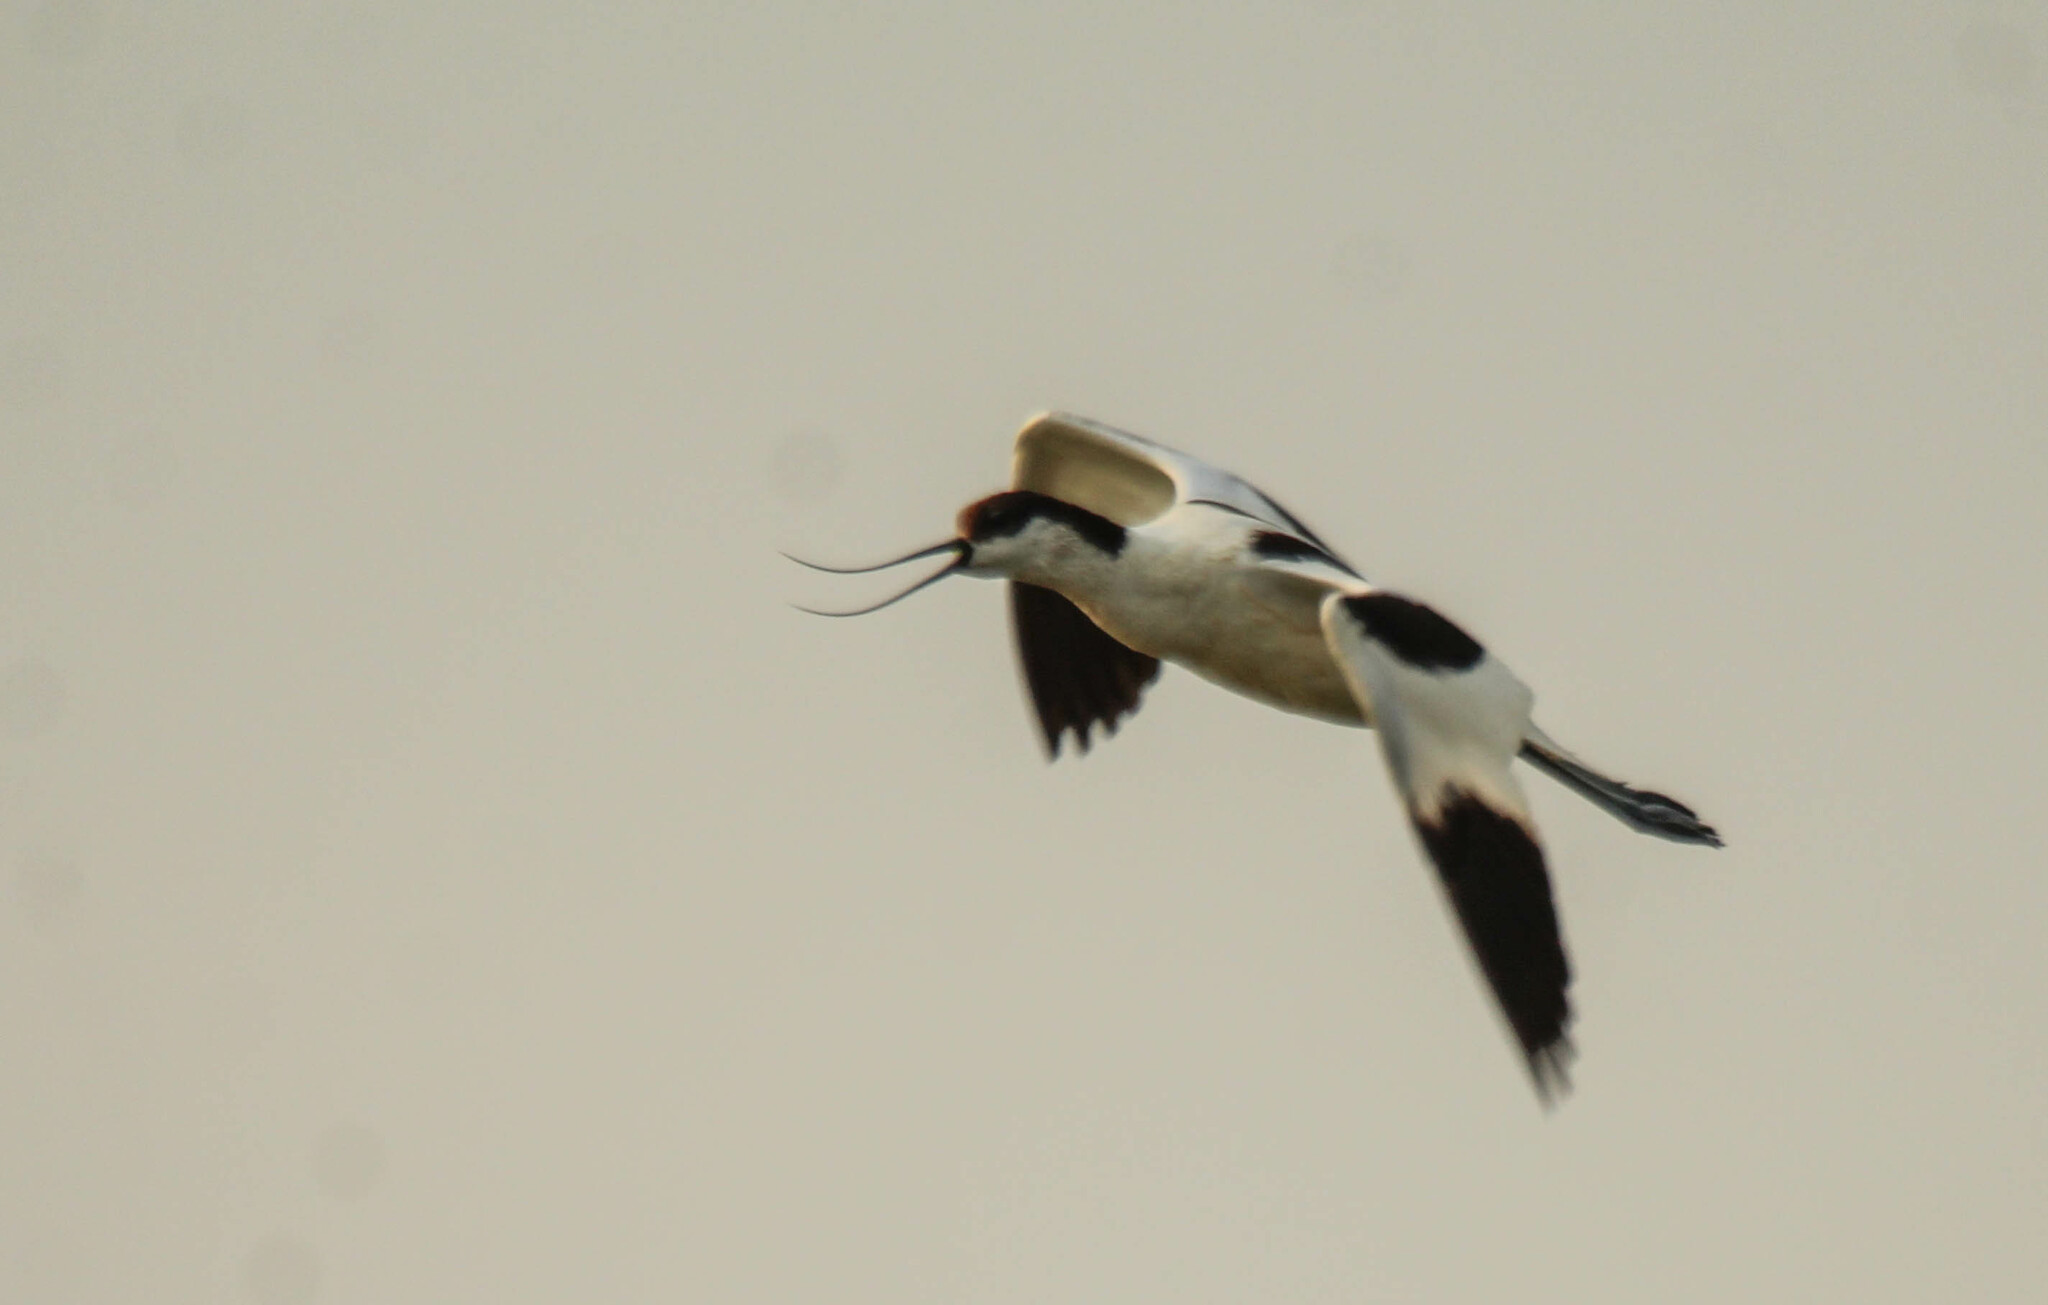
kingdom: Animalia
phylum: Chordata
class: Aves
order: Charadriiformes
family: Recurvirostridae
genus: Recurvirostra
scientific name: Recurvirostra avosetta
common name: Pied avocet
